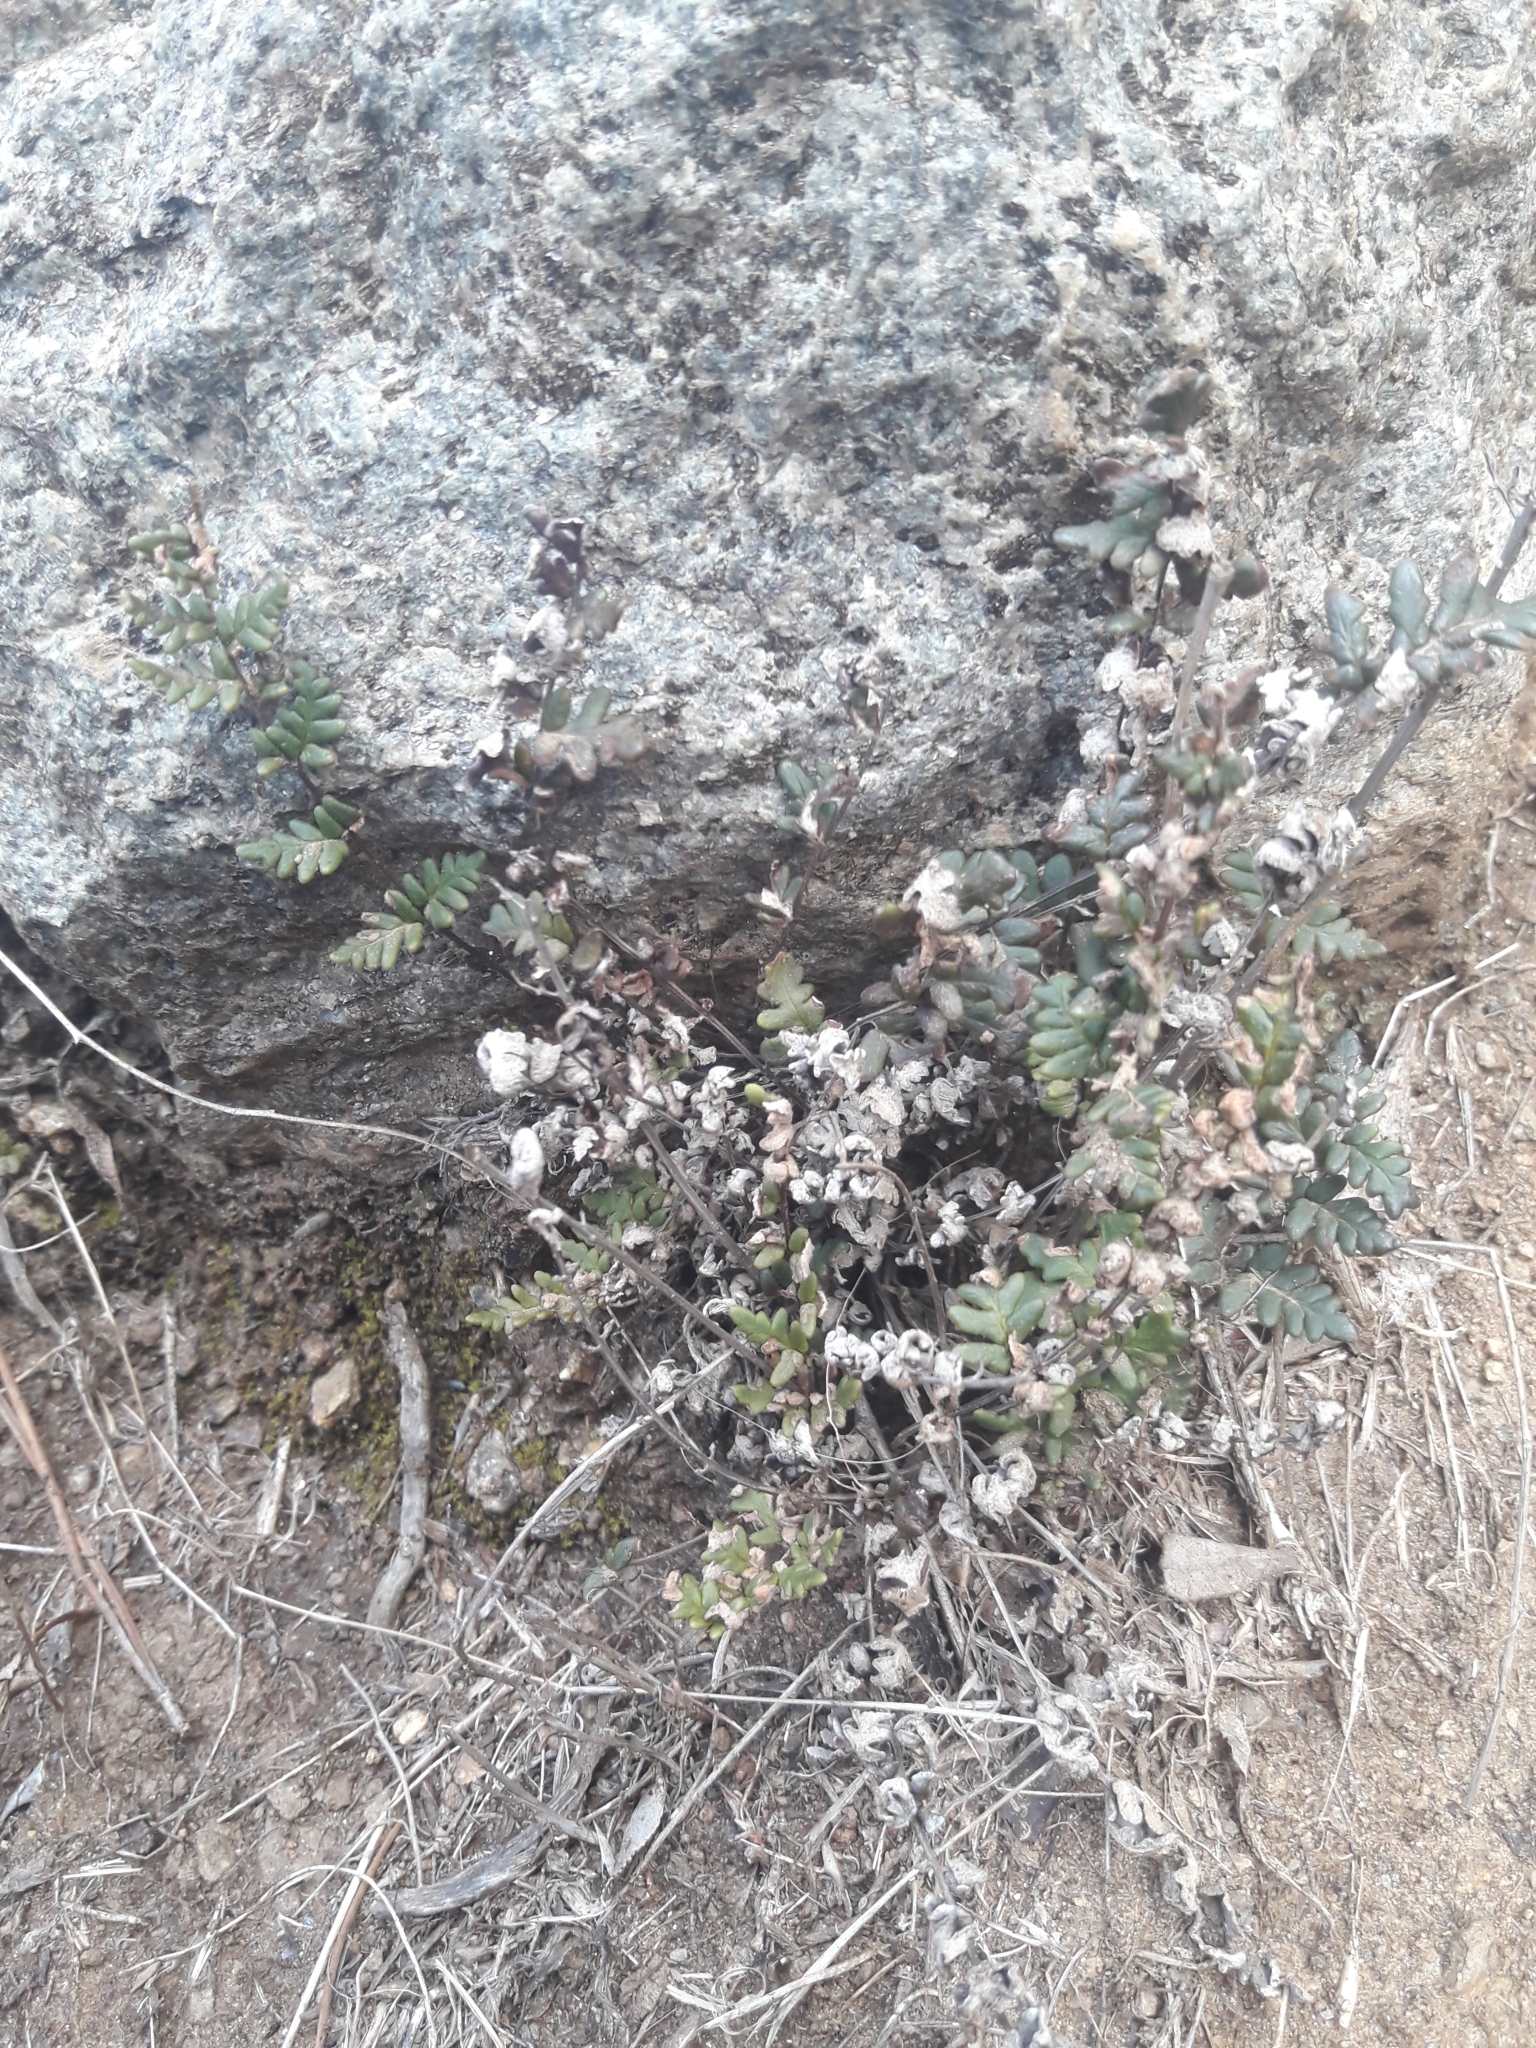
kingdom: Plantae
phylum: Tracheophyta
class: Polypodiopsida
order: Polypodiales
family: Pteridaceae
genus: Cheilanthes
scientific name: Cheilanthes hypoleuca
